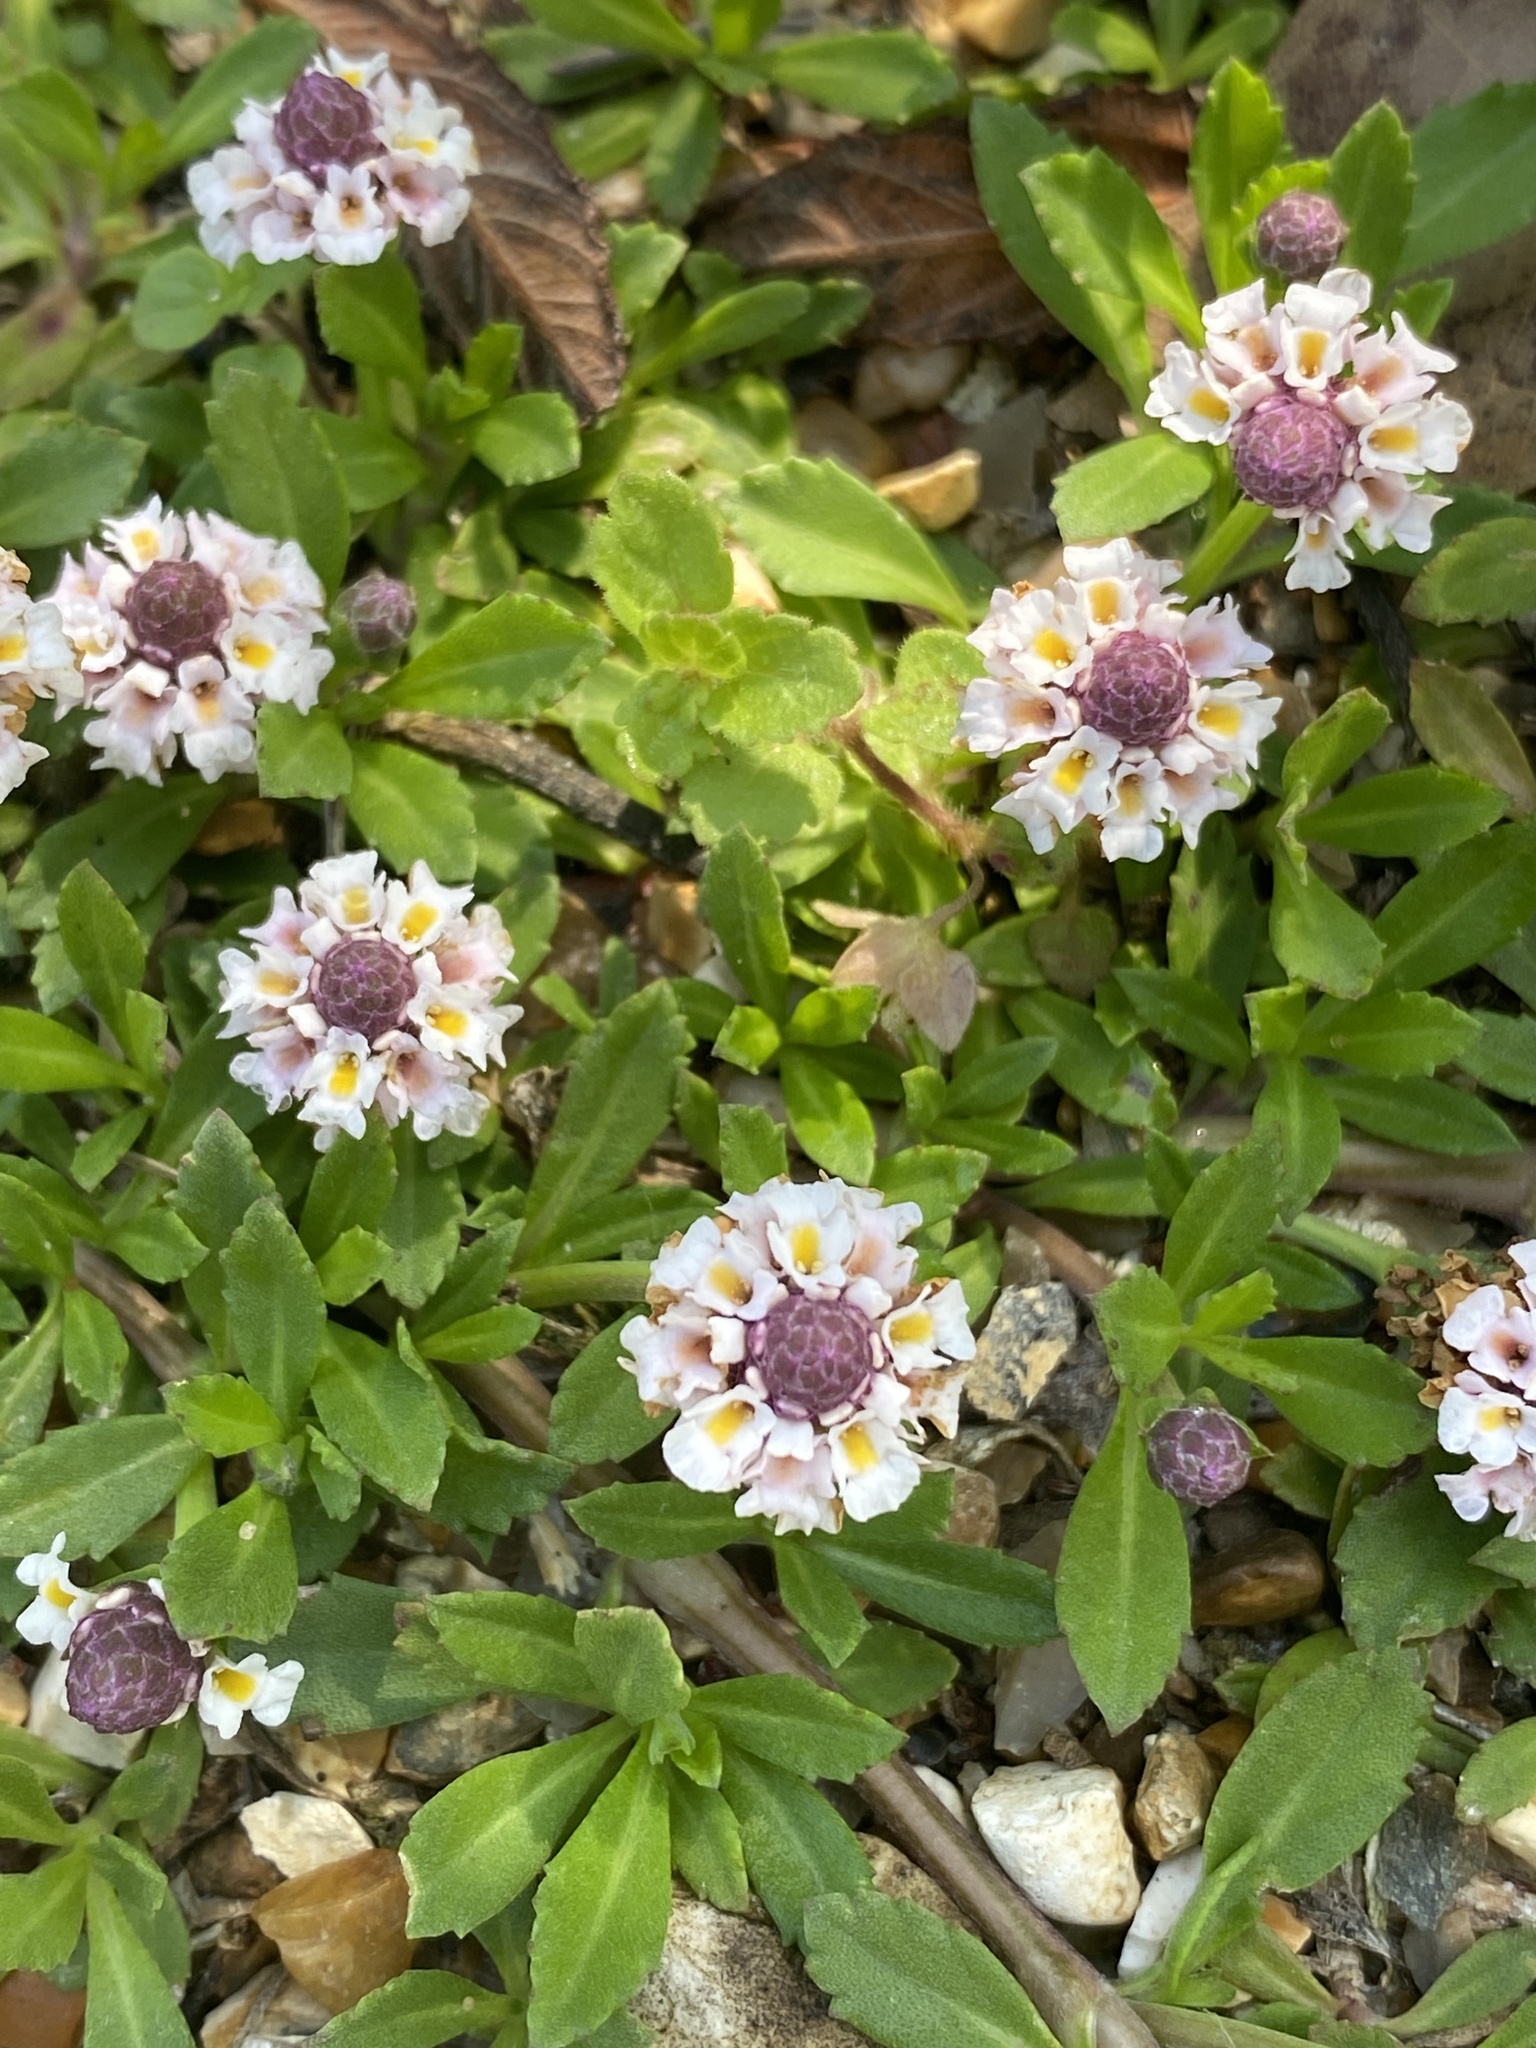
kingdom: Plantae
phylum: Tracheophyta
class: Magnoliopsida
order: Lamiales
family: Verbenaceae
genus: Phyla
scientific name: Phyla nodiflora
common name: Frogfruit
